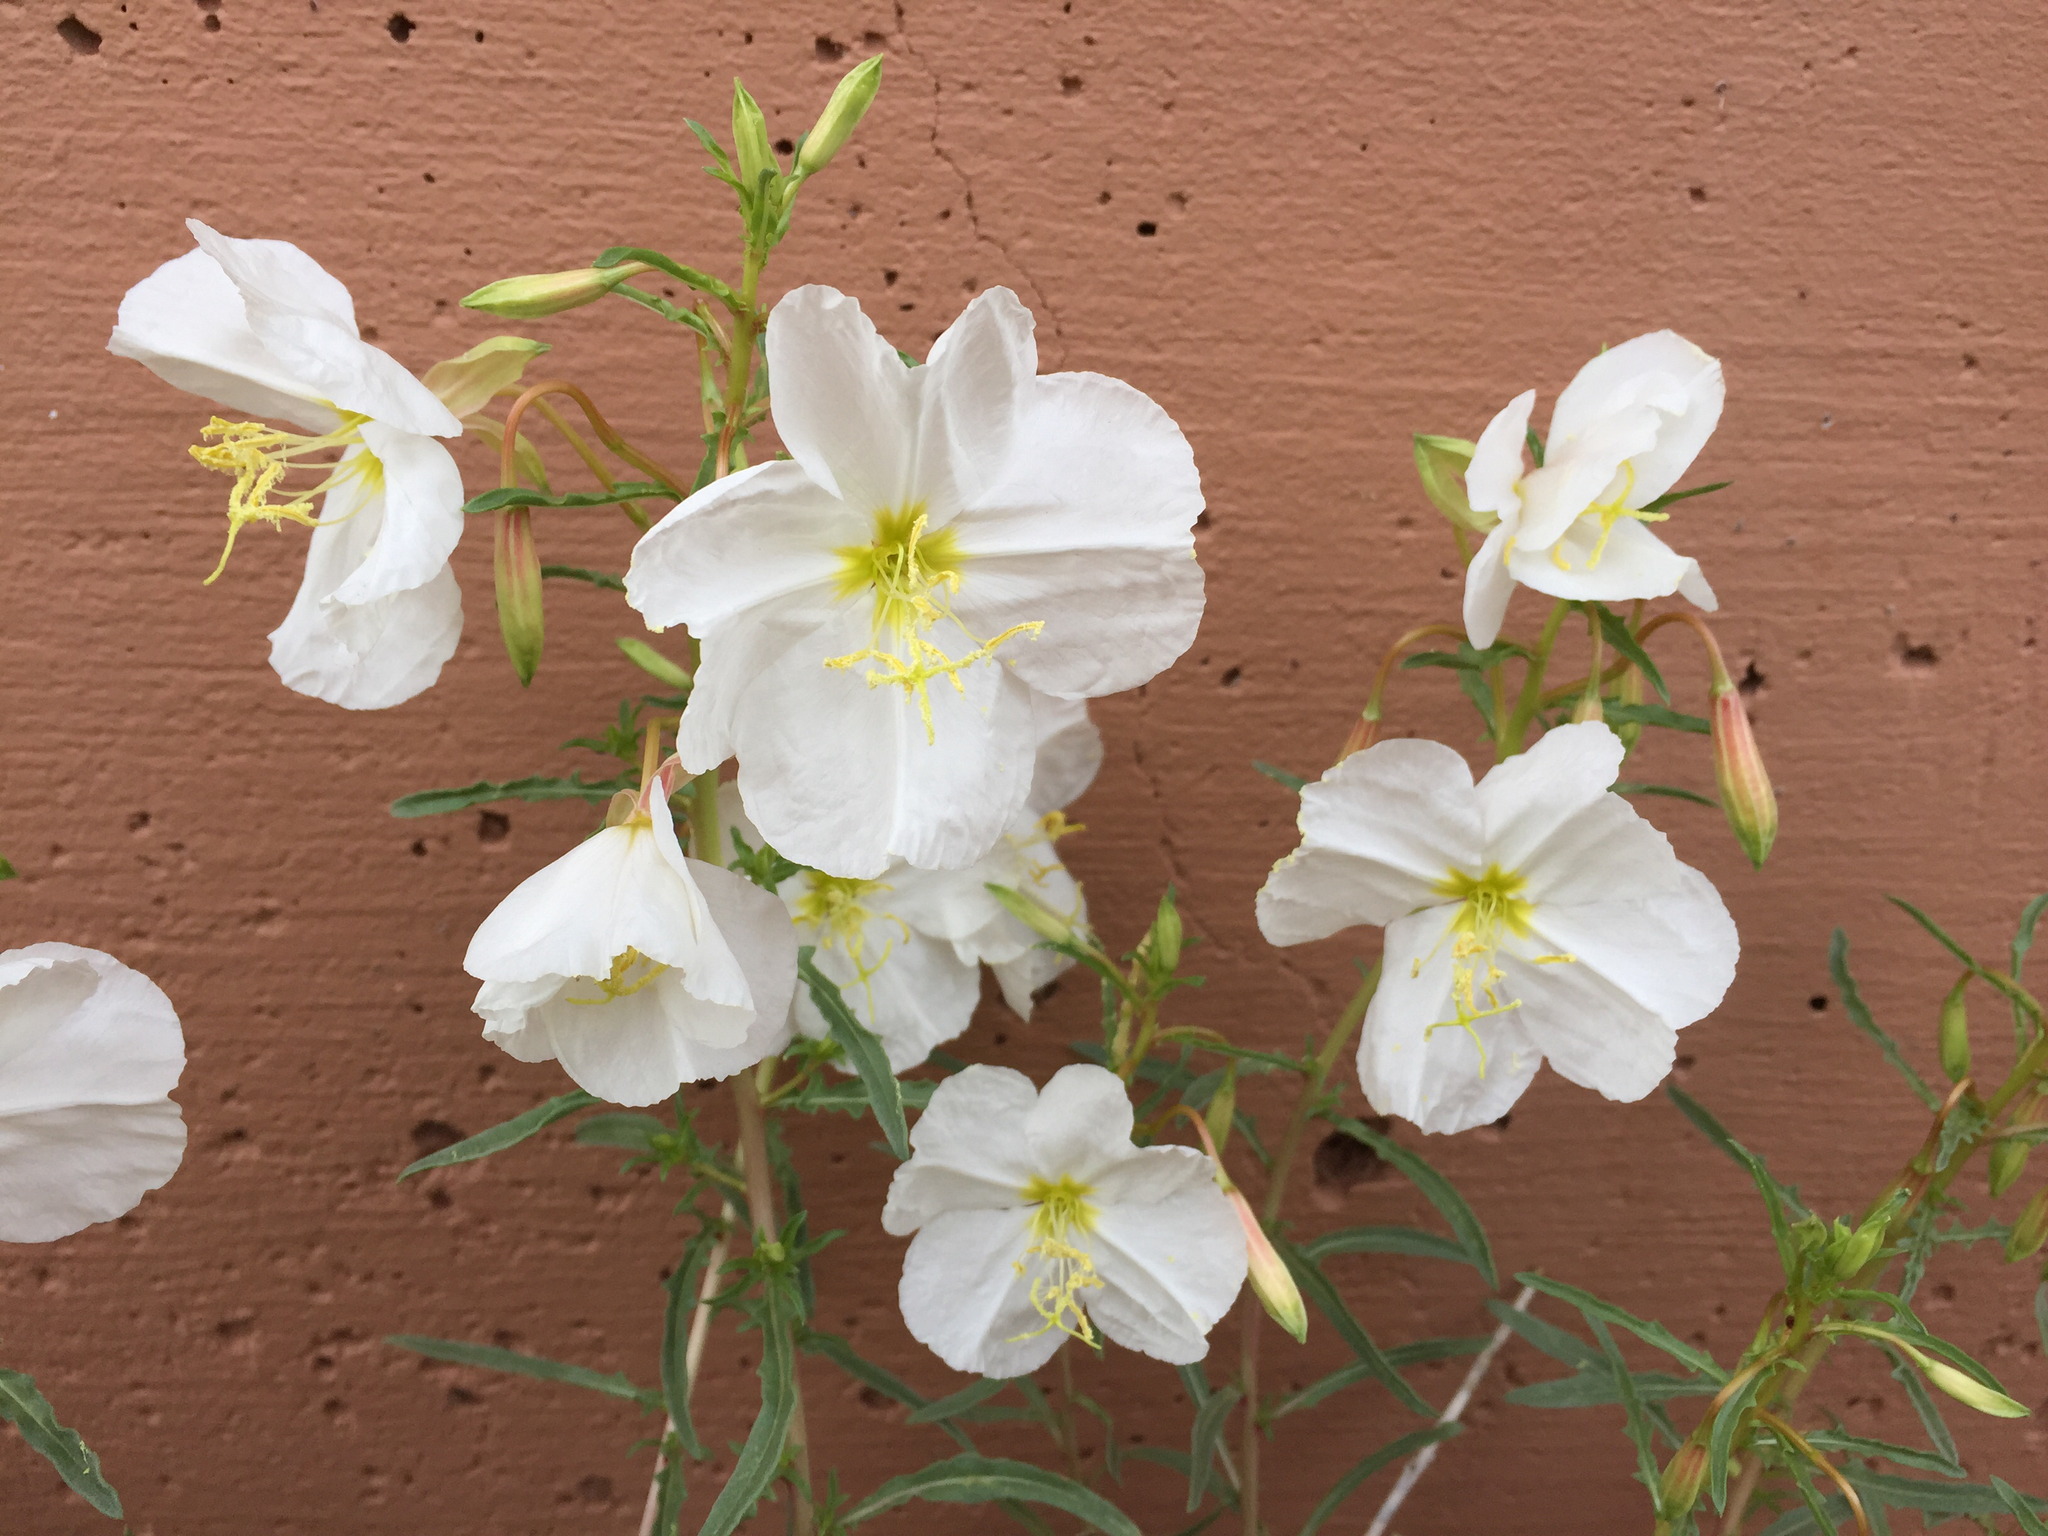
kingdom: Plantae
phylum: Tracheophyta
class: Magnoliopsida
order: Myrtales
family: Onagraceae
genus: Oenothera
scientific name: Oenothera pallida
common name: Pale evening-primrose
